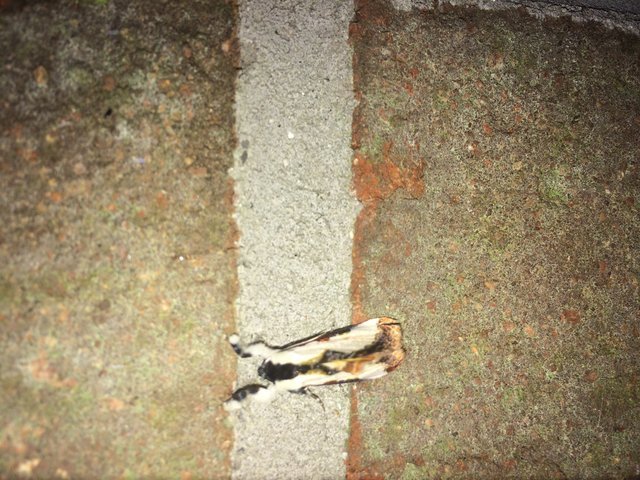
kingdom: Animalia
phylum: Arthropoda
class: Insecta
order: Lepidoptera
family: Noctuidae
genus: Eudryas
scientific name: Eudryas unio
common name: Pearly wood-nymph
